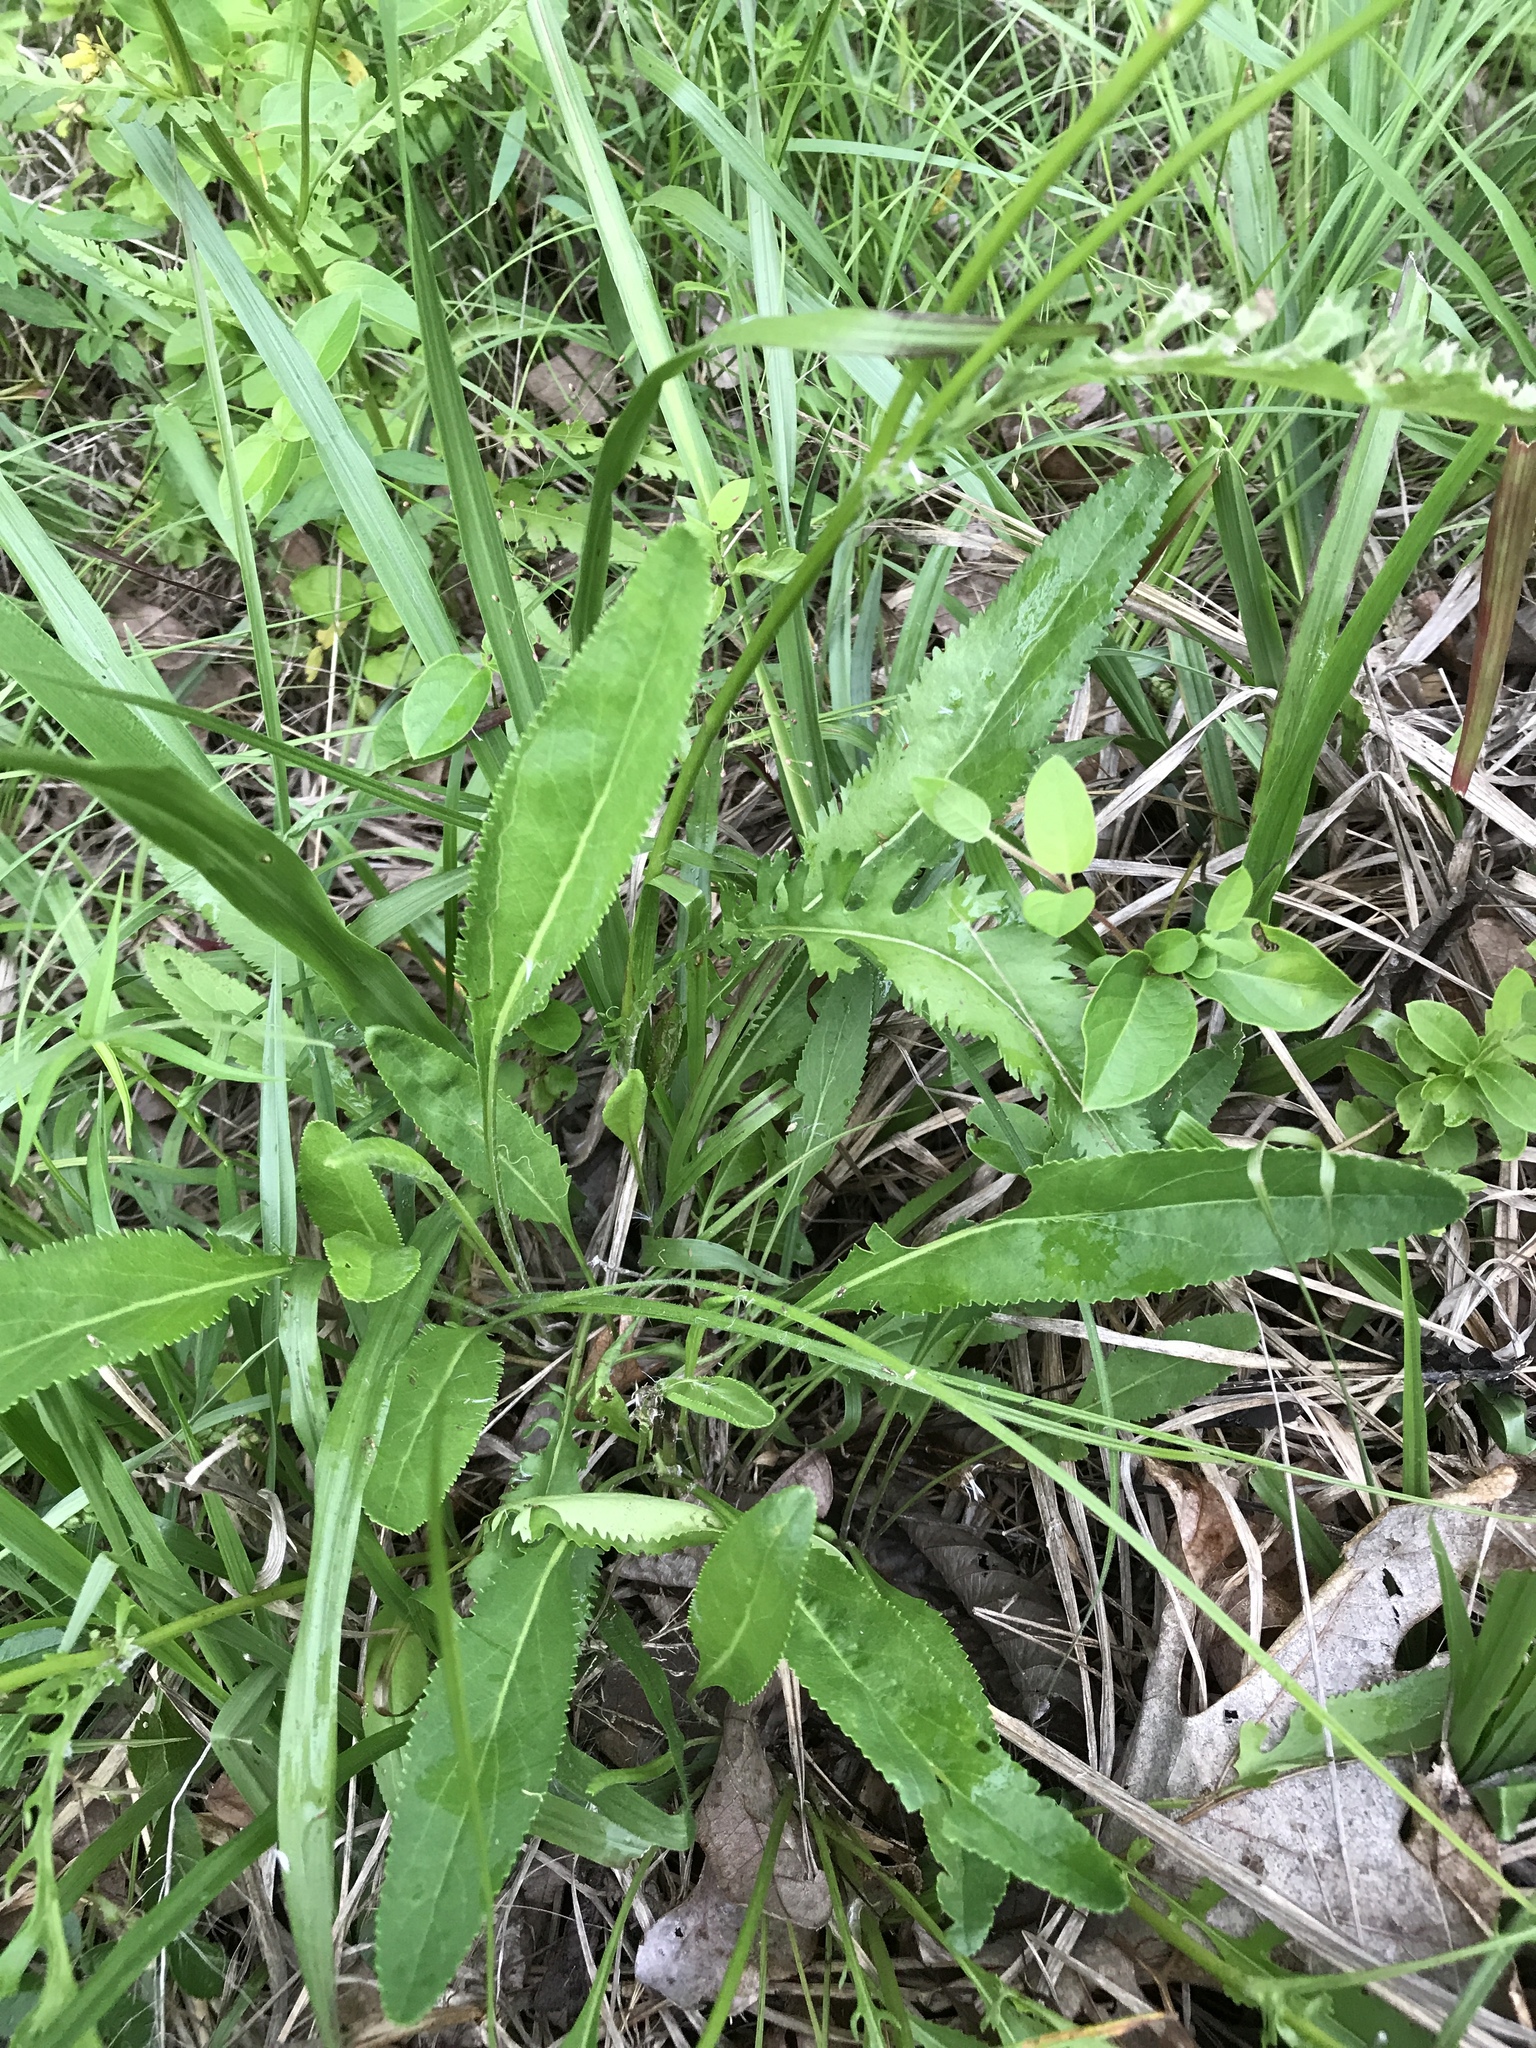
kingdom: Plantae
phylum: Tracheophyta
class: Magnoliopsida
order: Asterales
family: Asteraceae
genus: Packera
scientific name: Packera anonyma
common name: Small ragwort
